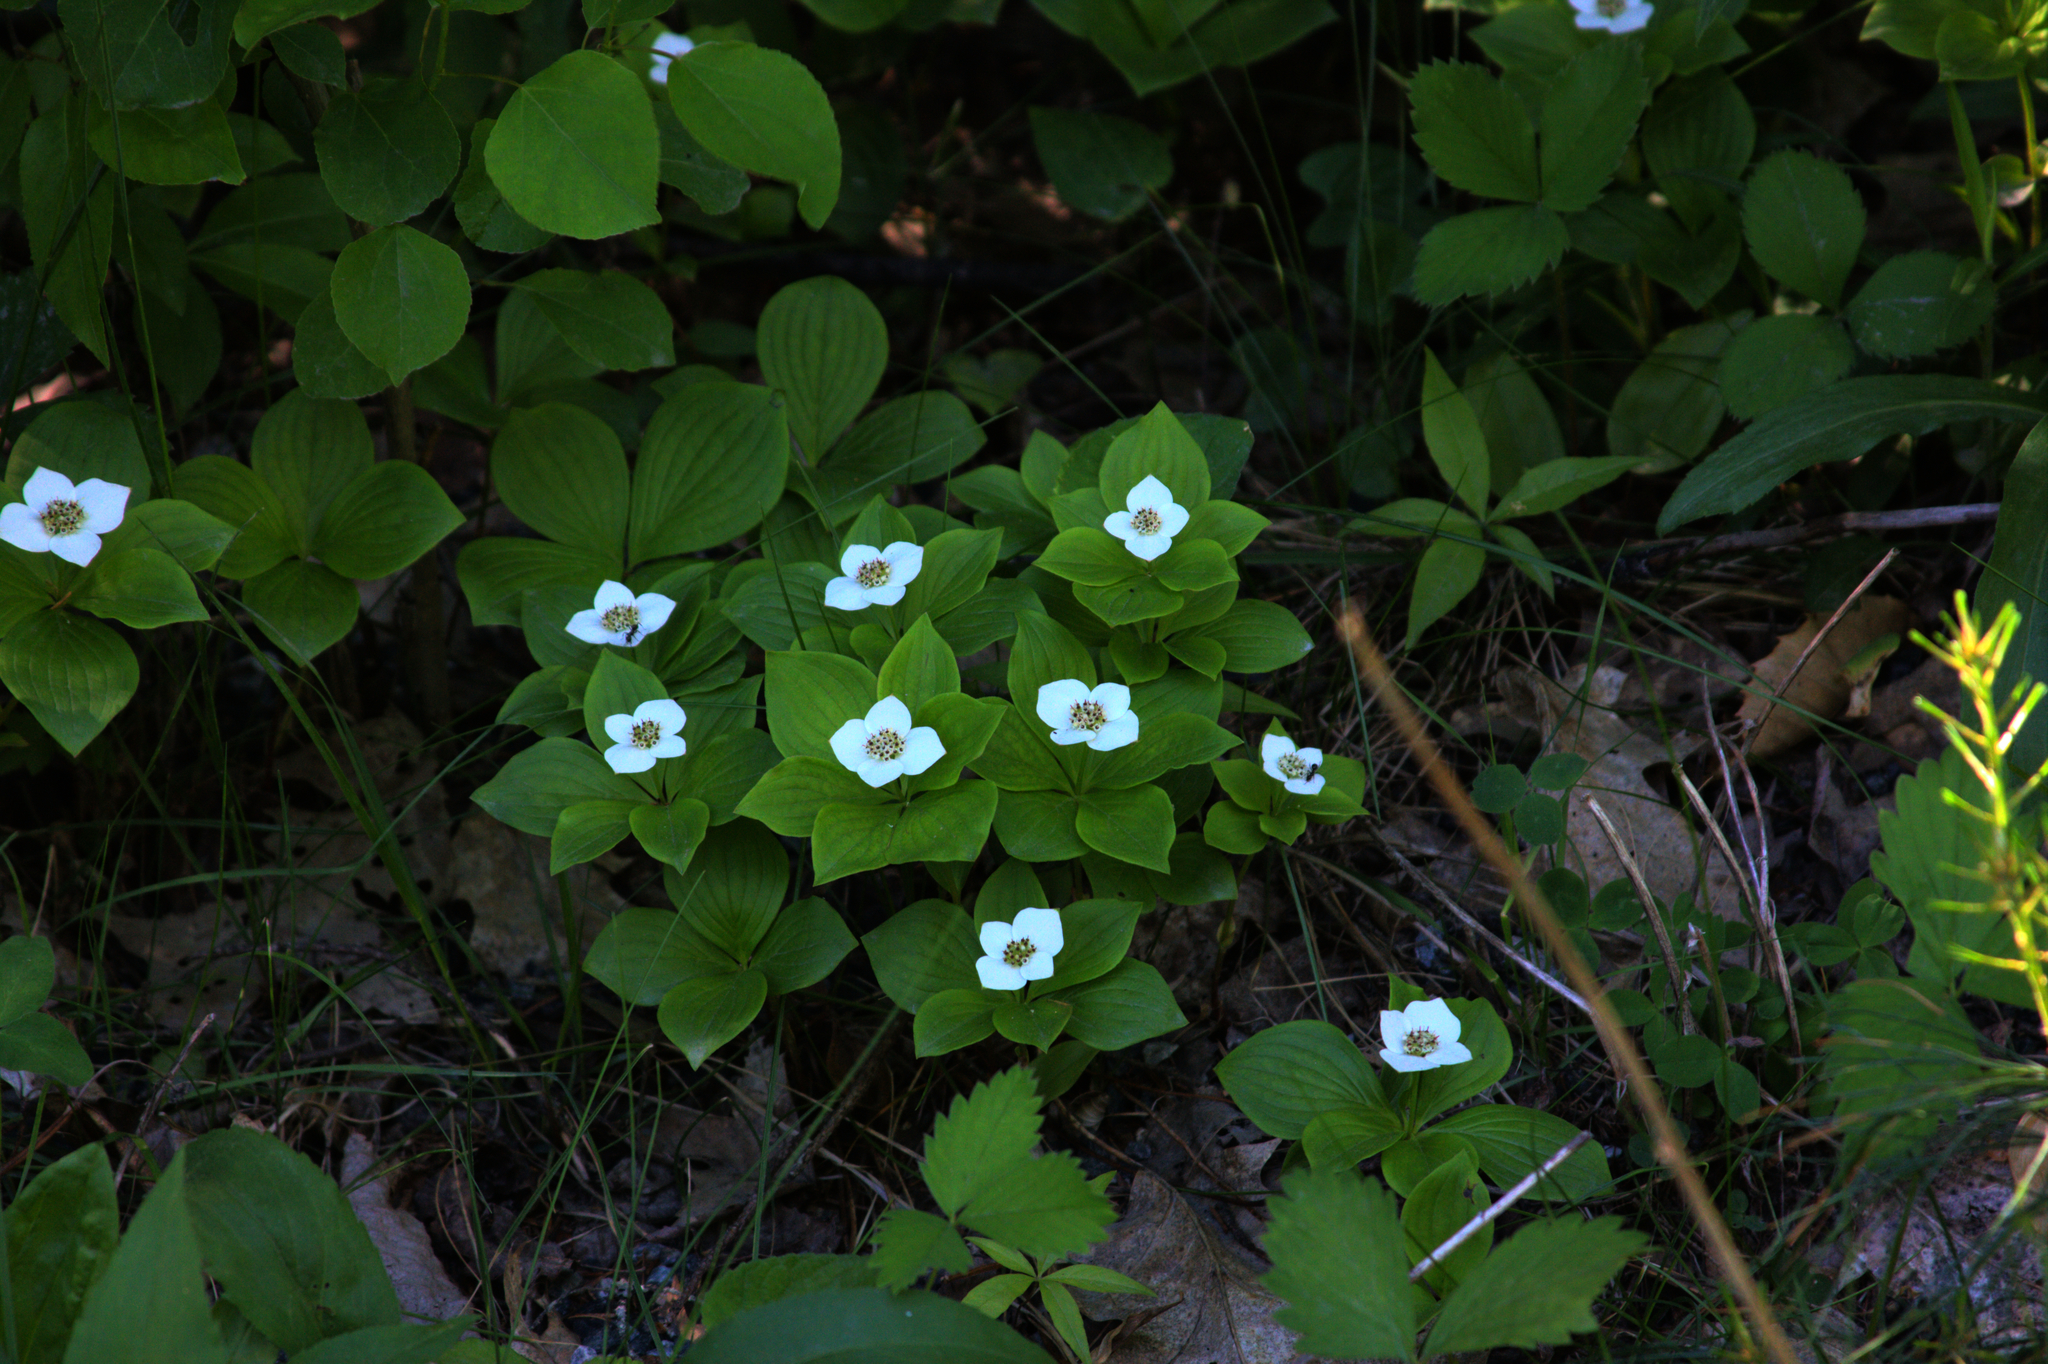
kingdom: Plantae
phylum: Tracheophyta
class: Magnoliopsida
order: Cornales
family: Cornaceae
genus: Cornus
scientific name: Cornus canadensis
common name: Creeping dogwood
